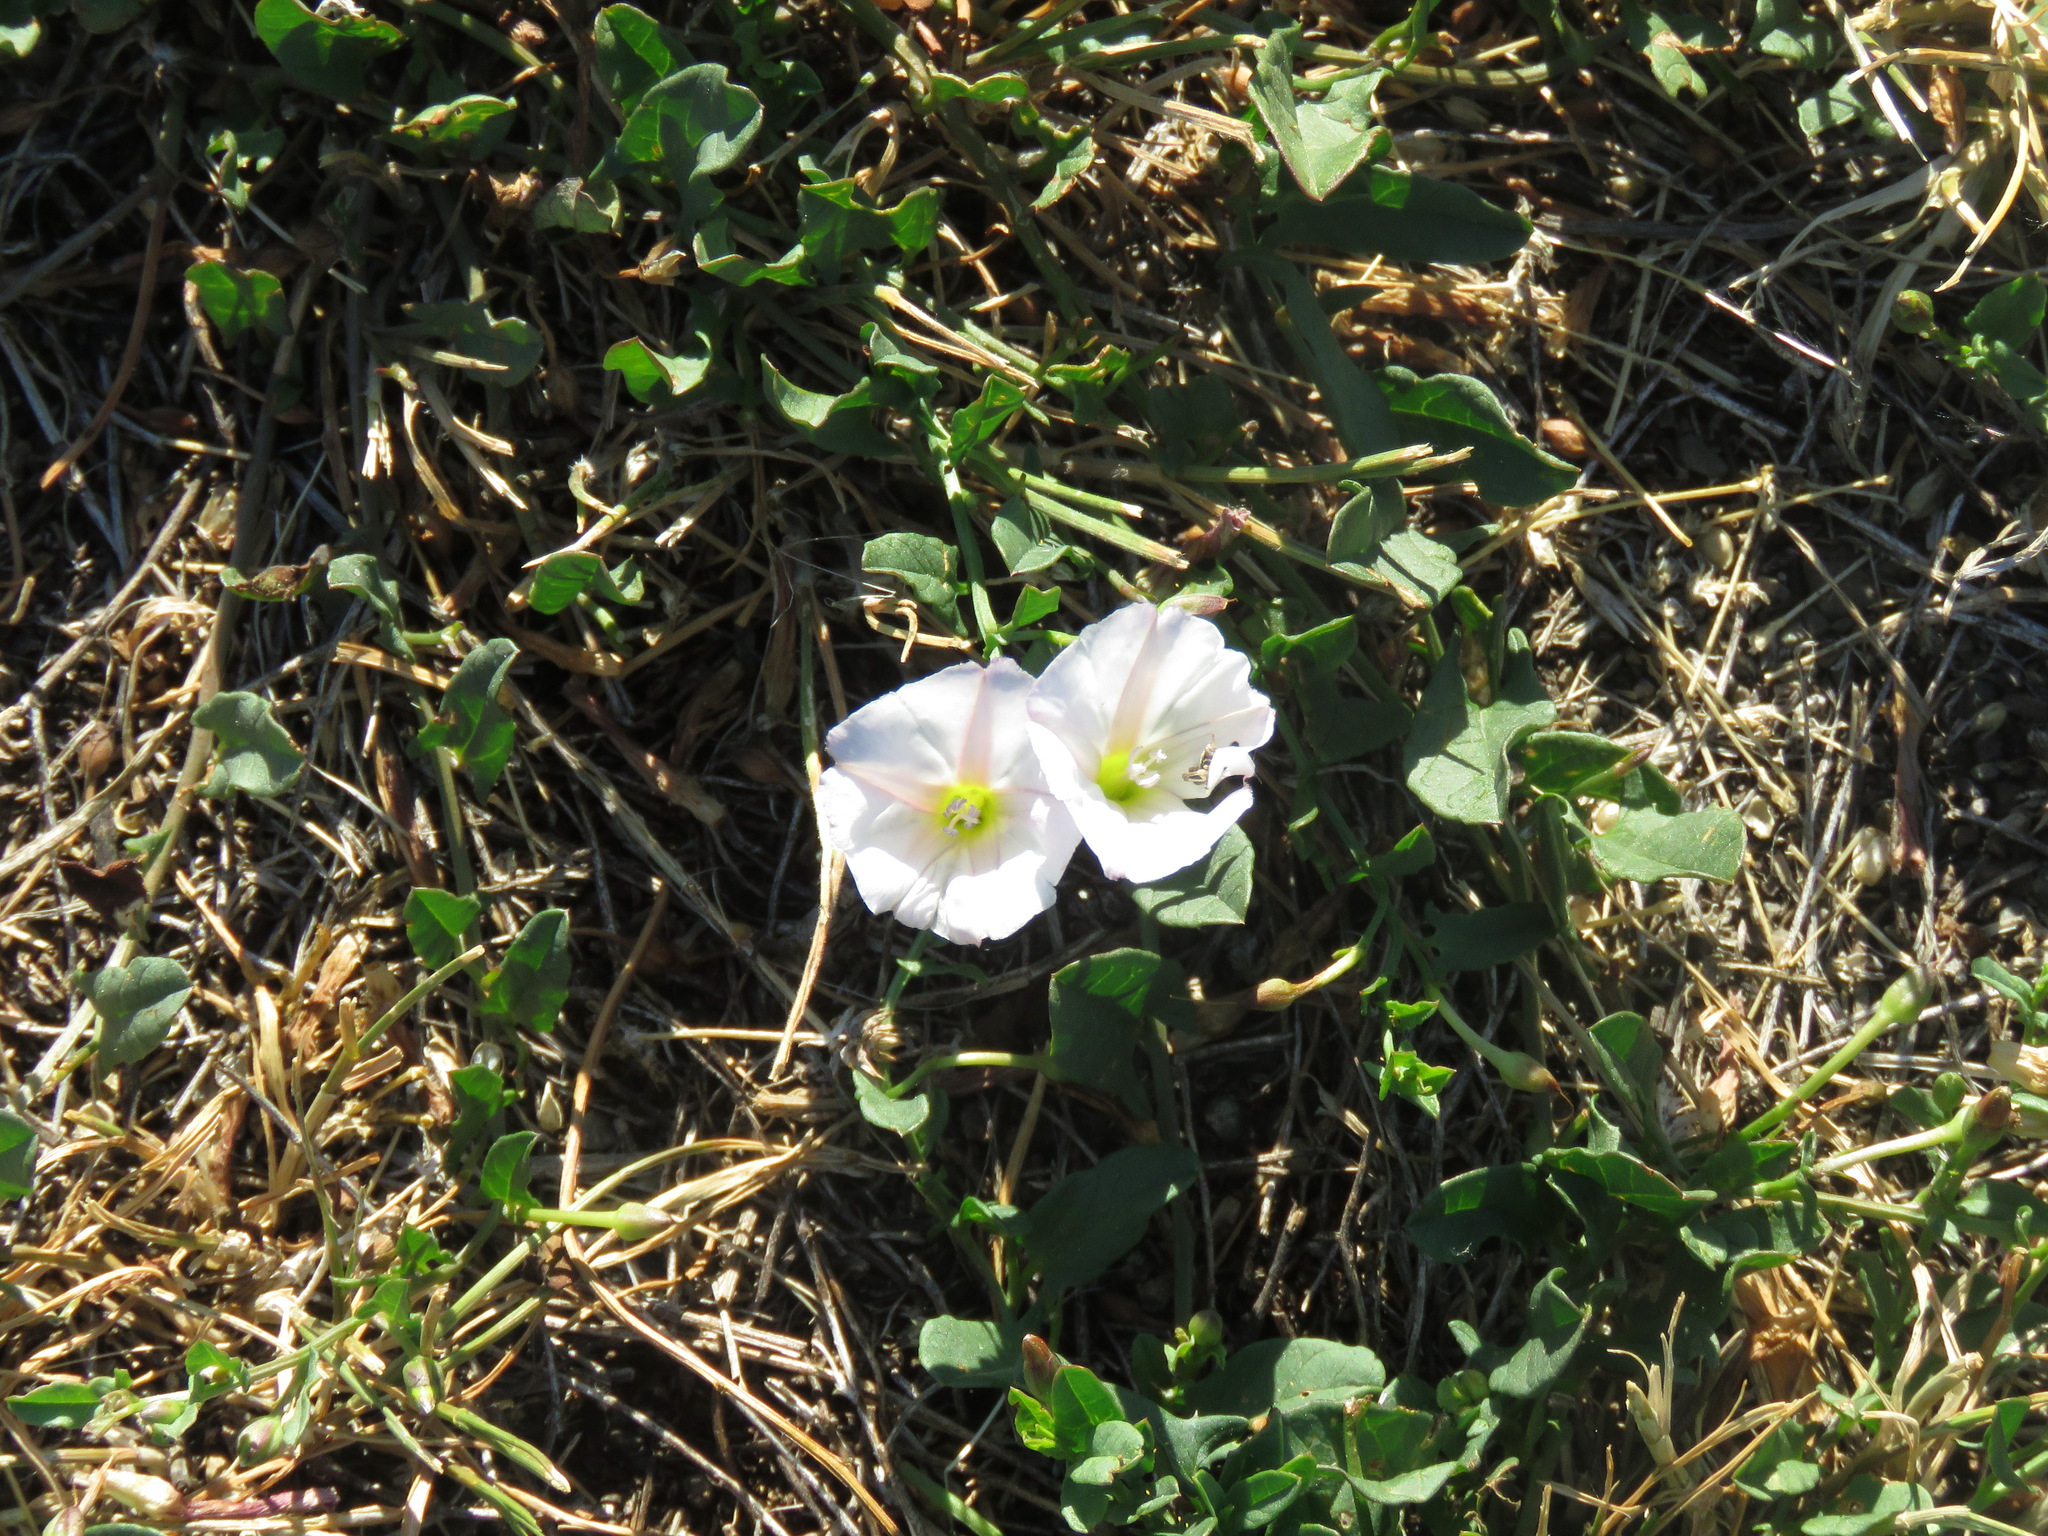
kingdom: Plantae
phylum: Tracheophyta
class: Magnoliopsida
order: Solanales
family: Convolvulaceae
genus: Convolvulus
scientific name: Convolvulus arvensis
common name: Field bindweed
